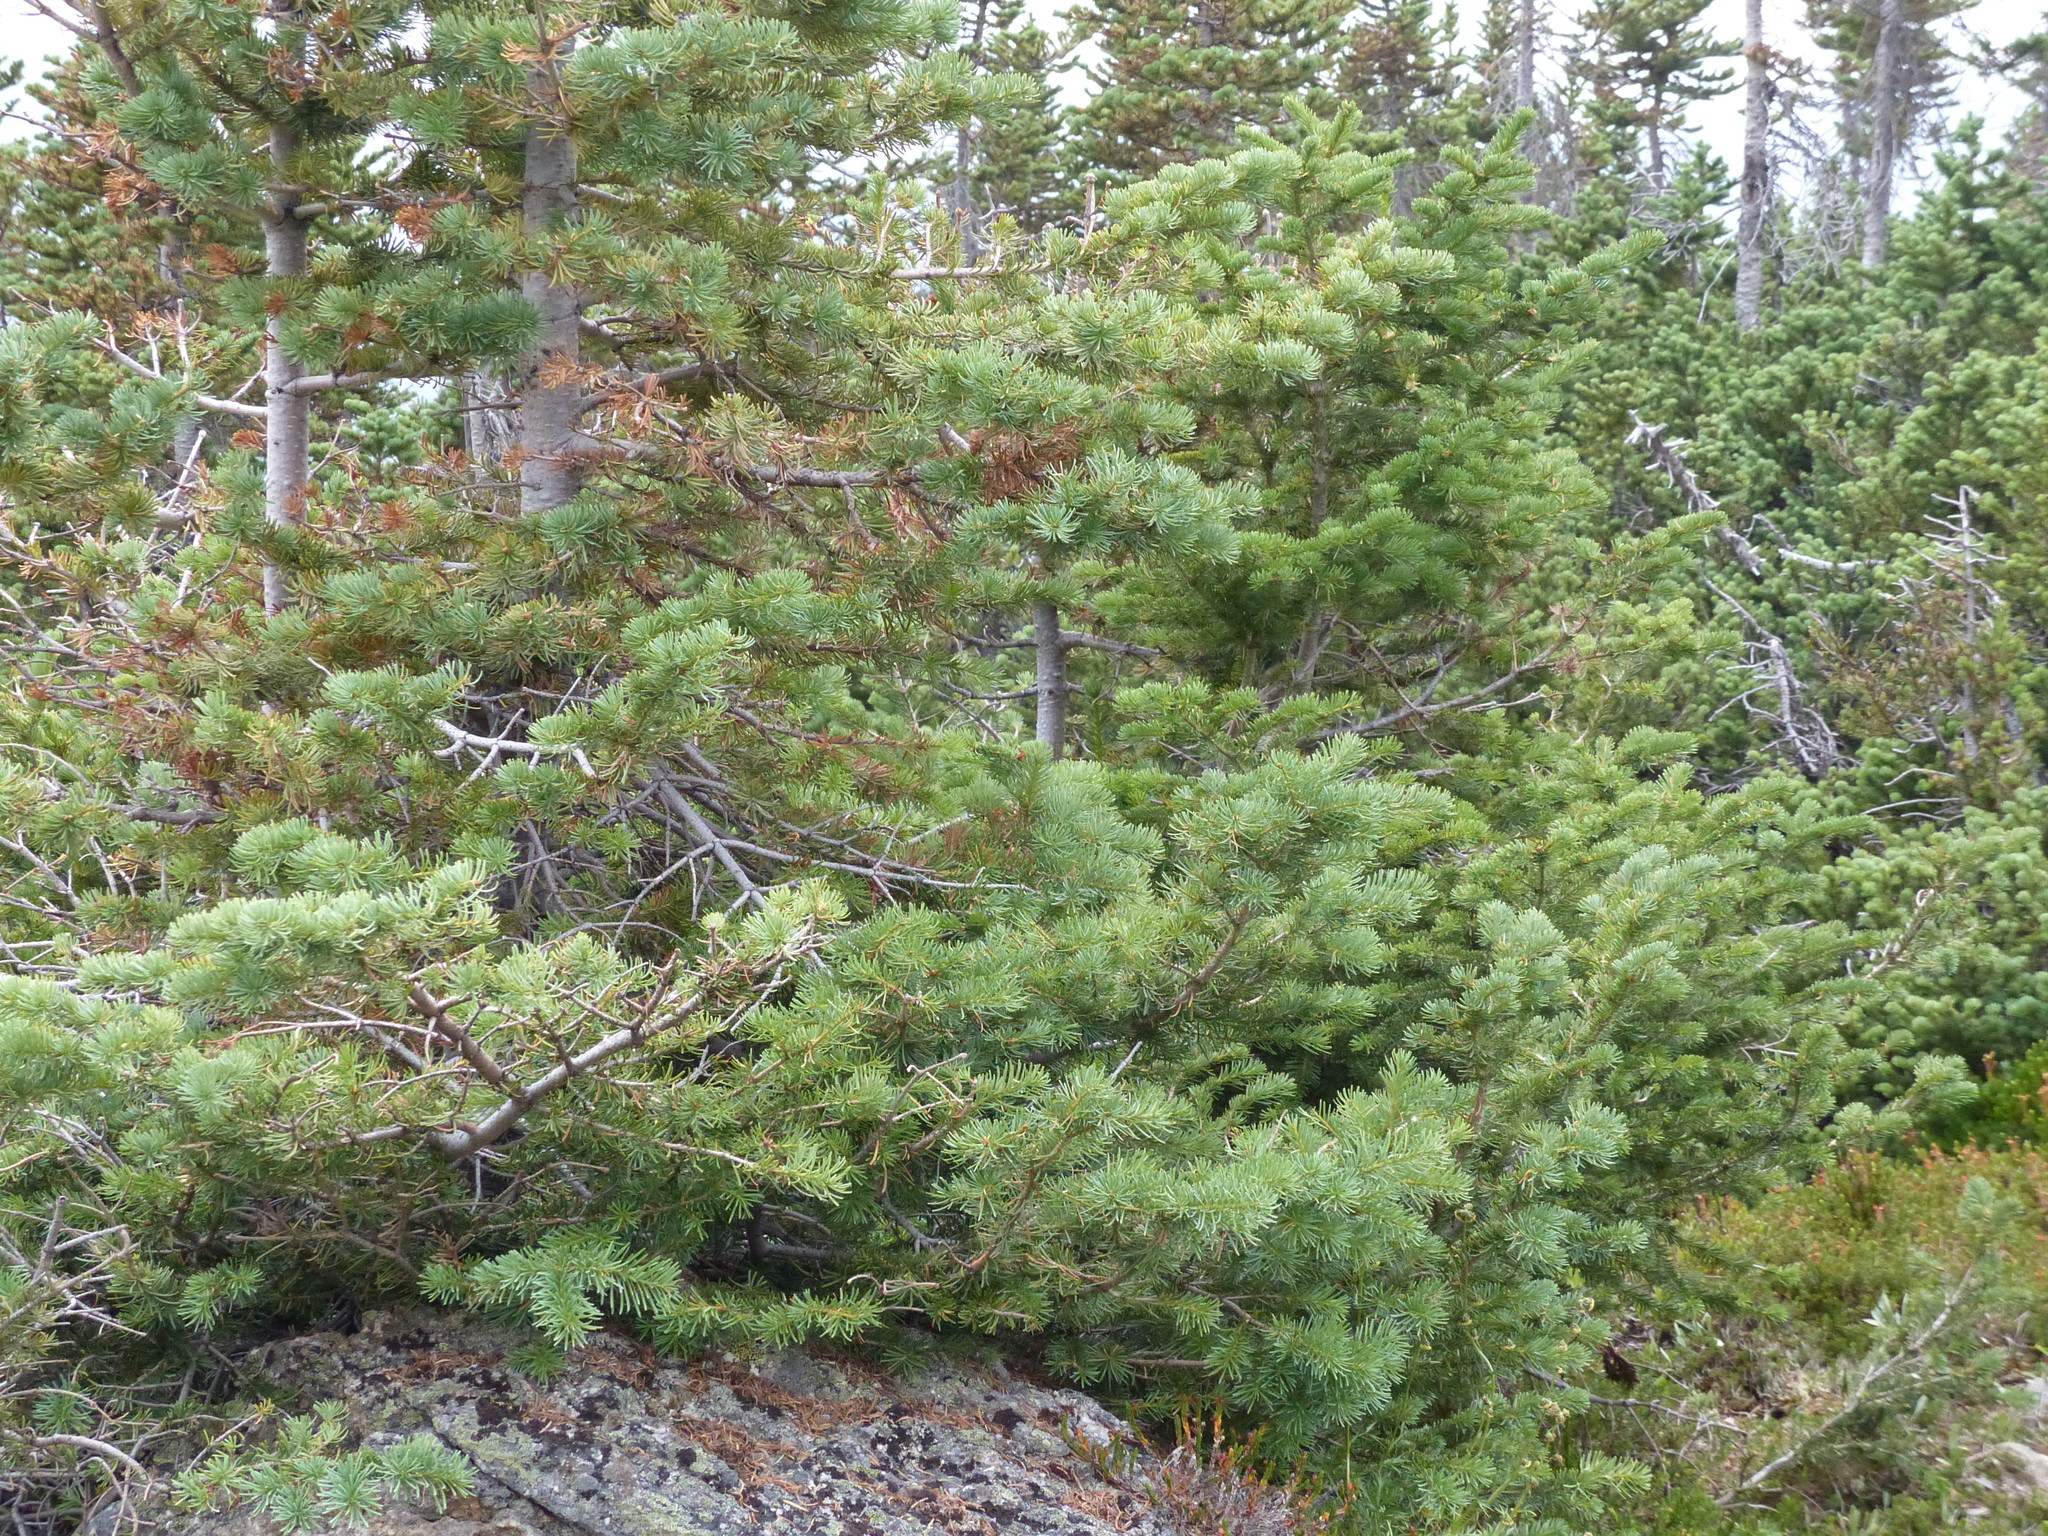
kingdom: Plantae
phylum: Tracheophyta
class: Pinopsida
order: Pinales
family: Pinaceae
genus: Abies
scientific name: Abies lasiocarpa
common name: Subalpine fir
